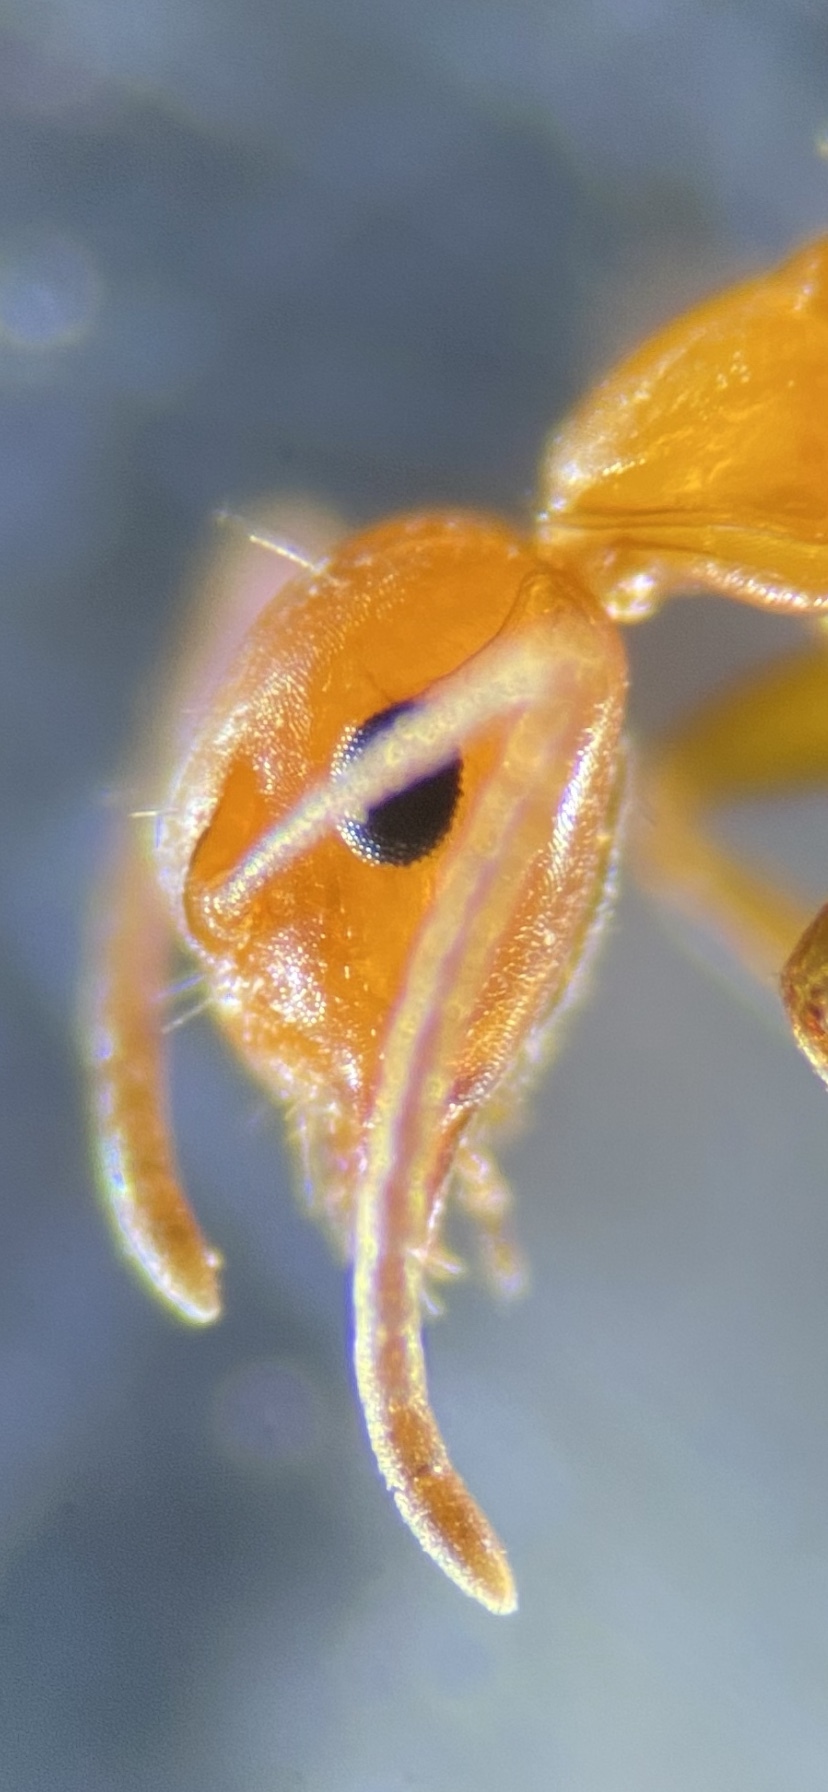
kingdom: Animalia
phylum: Arthropoda
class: Insecta
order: Hymenoptera
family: Formicidae
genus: Camponotus
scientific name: Camponotus decipiens
